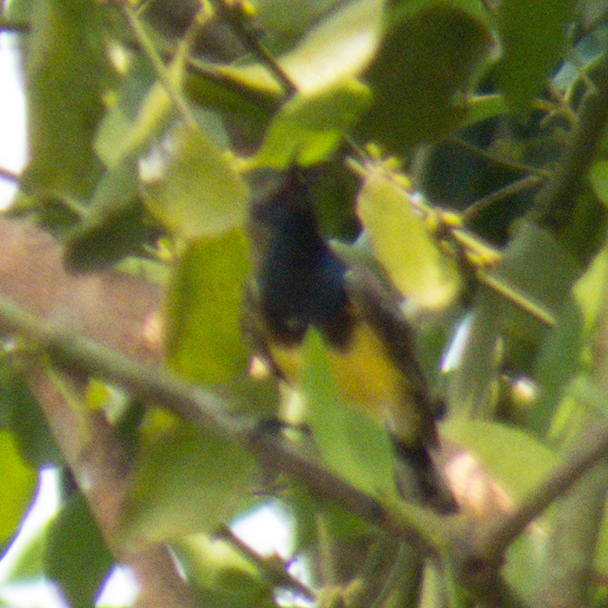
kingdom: Animalia
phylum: Chordata
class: Aves
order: Passeriformes
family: Nectariniidae
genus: Cinnyris
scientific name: Cinnyris
